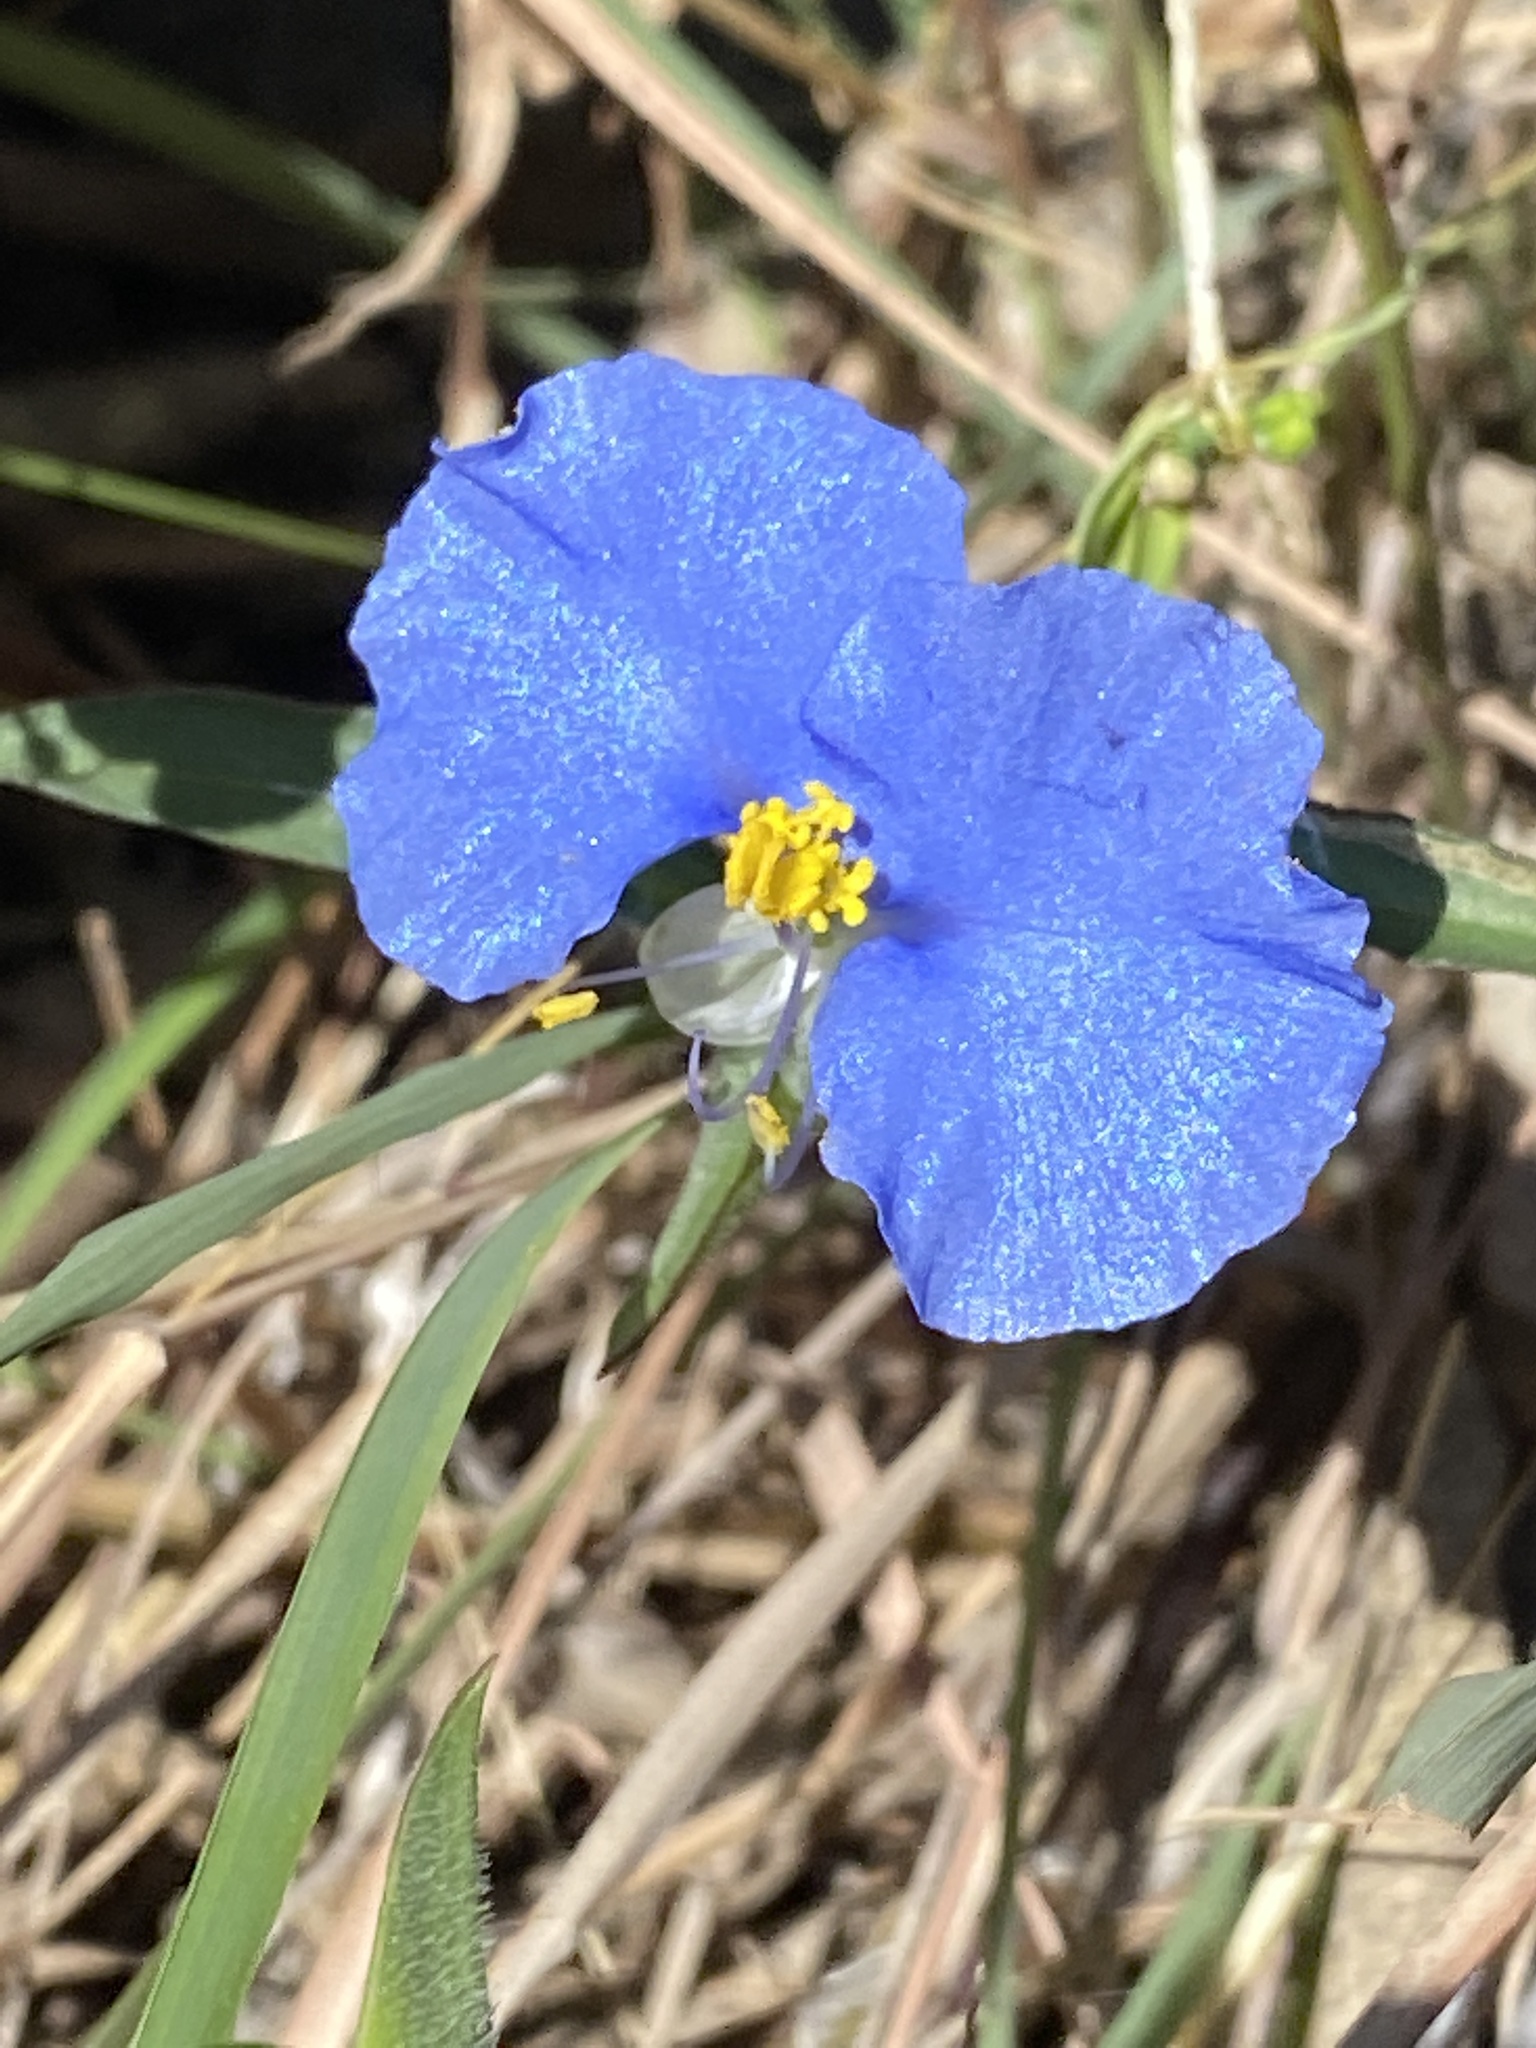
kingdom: Plantae
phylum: Tracheophyta
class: Liliopsida
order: Commelinales
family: Commelinaceae
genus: Commelina
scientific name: Commelina erecta
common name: Blousel blommetjie
